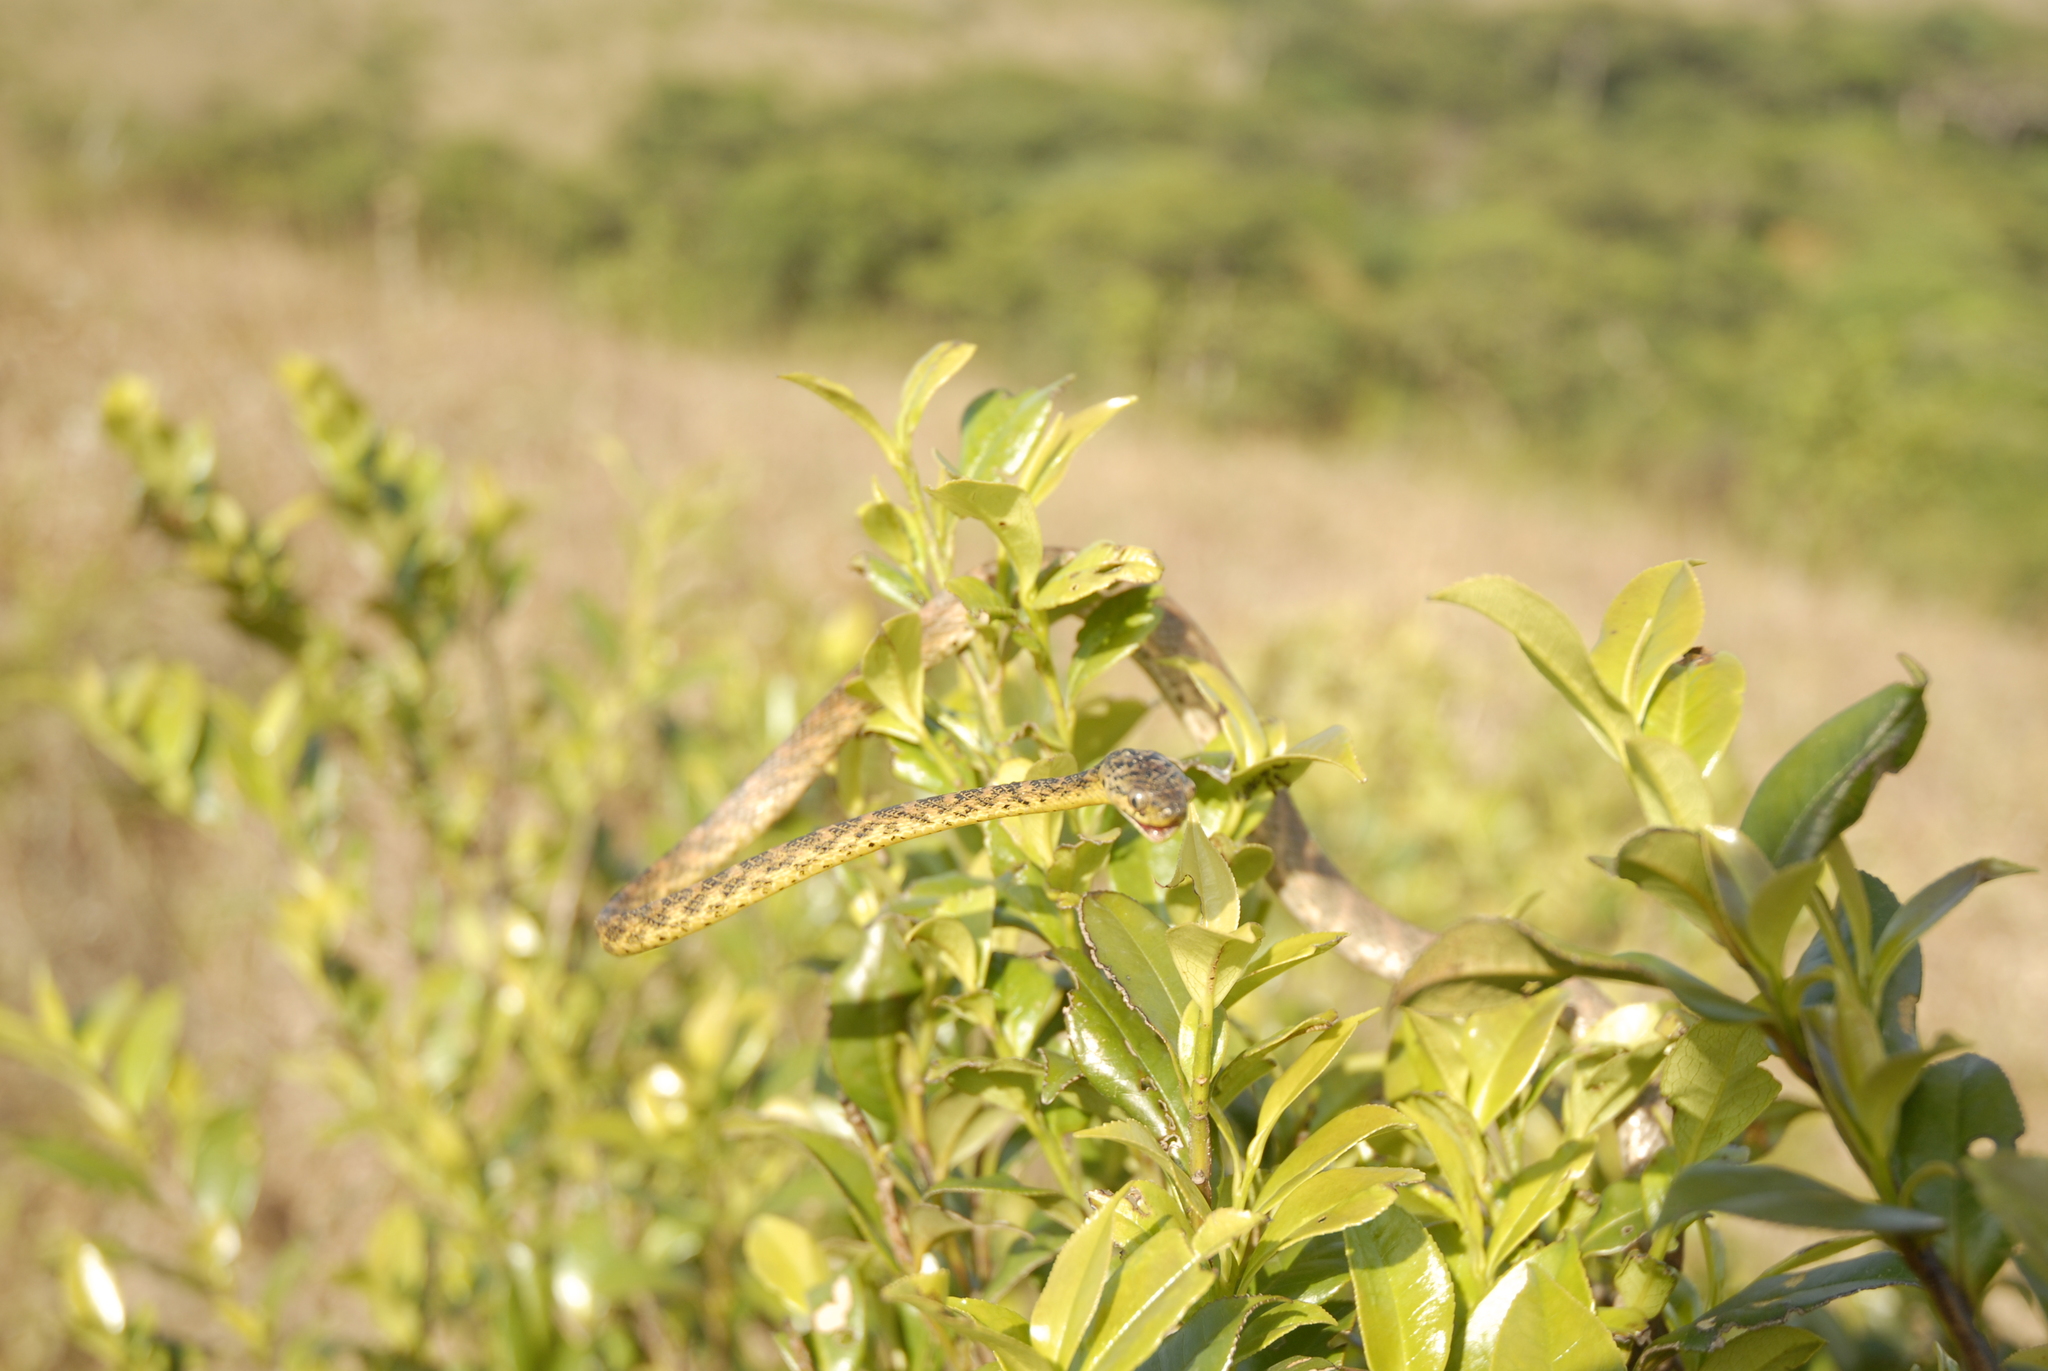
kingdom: Animalia
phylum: Chordata
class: Squamata
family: Colubridae
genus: Boiga
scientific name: Boiga thackerayi
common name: Thackeray’s cat snake
